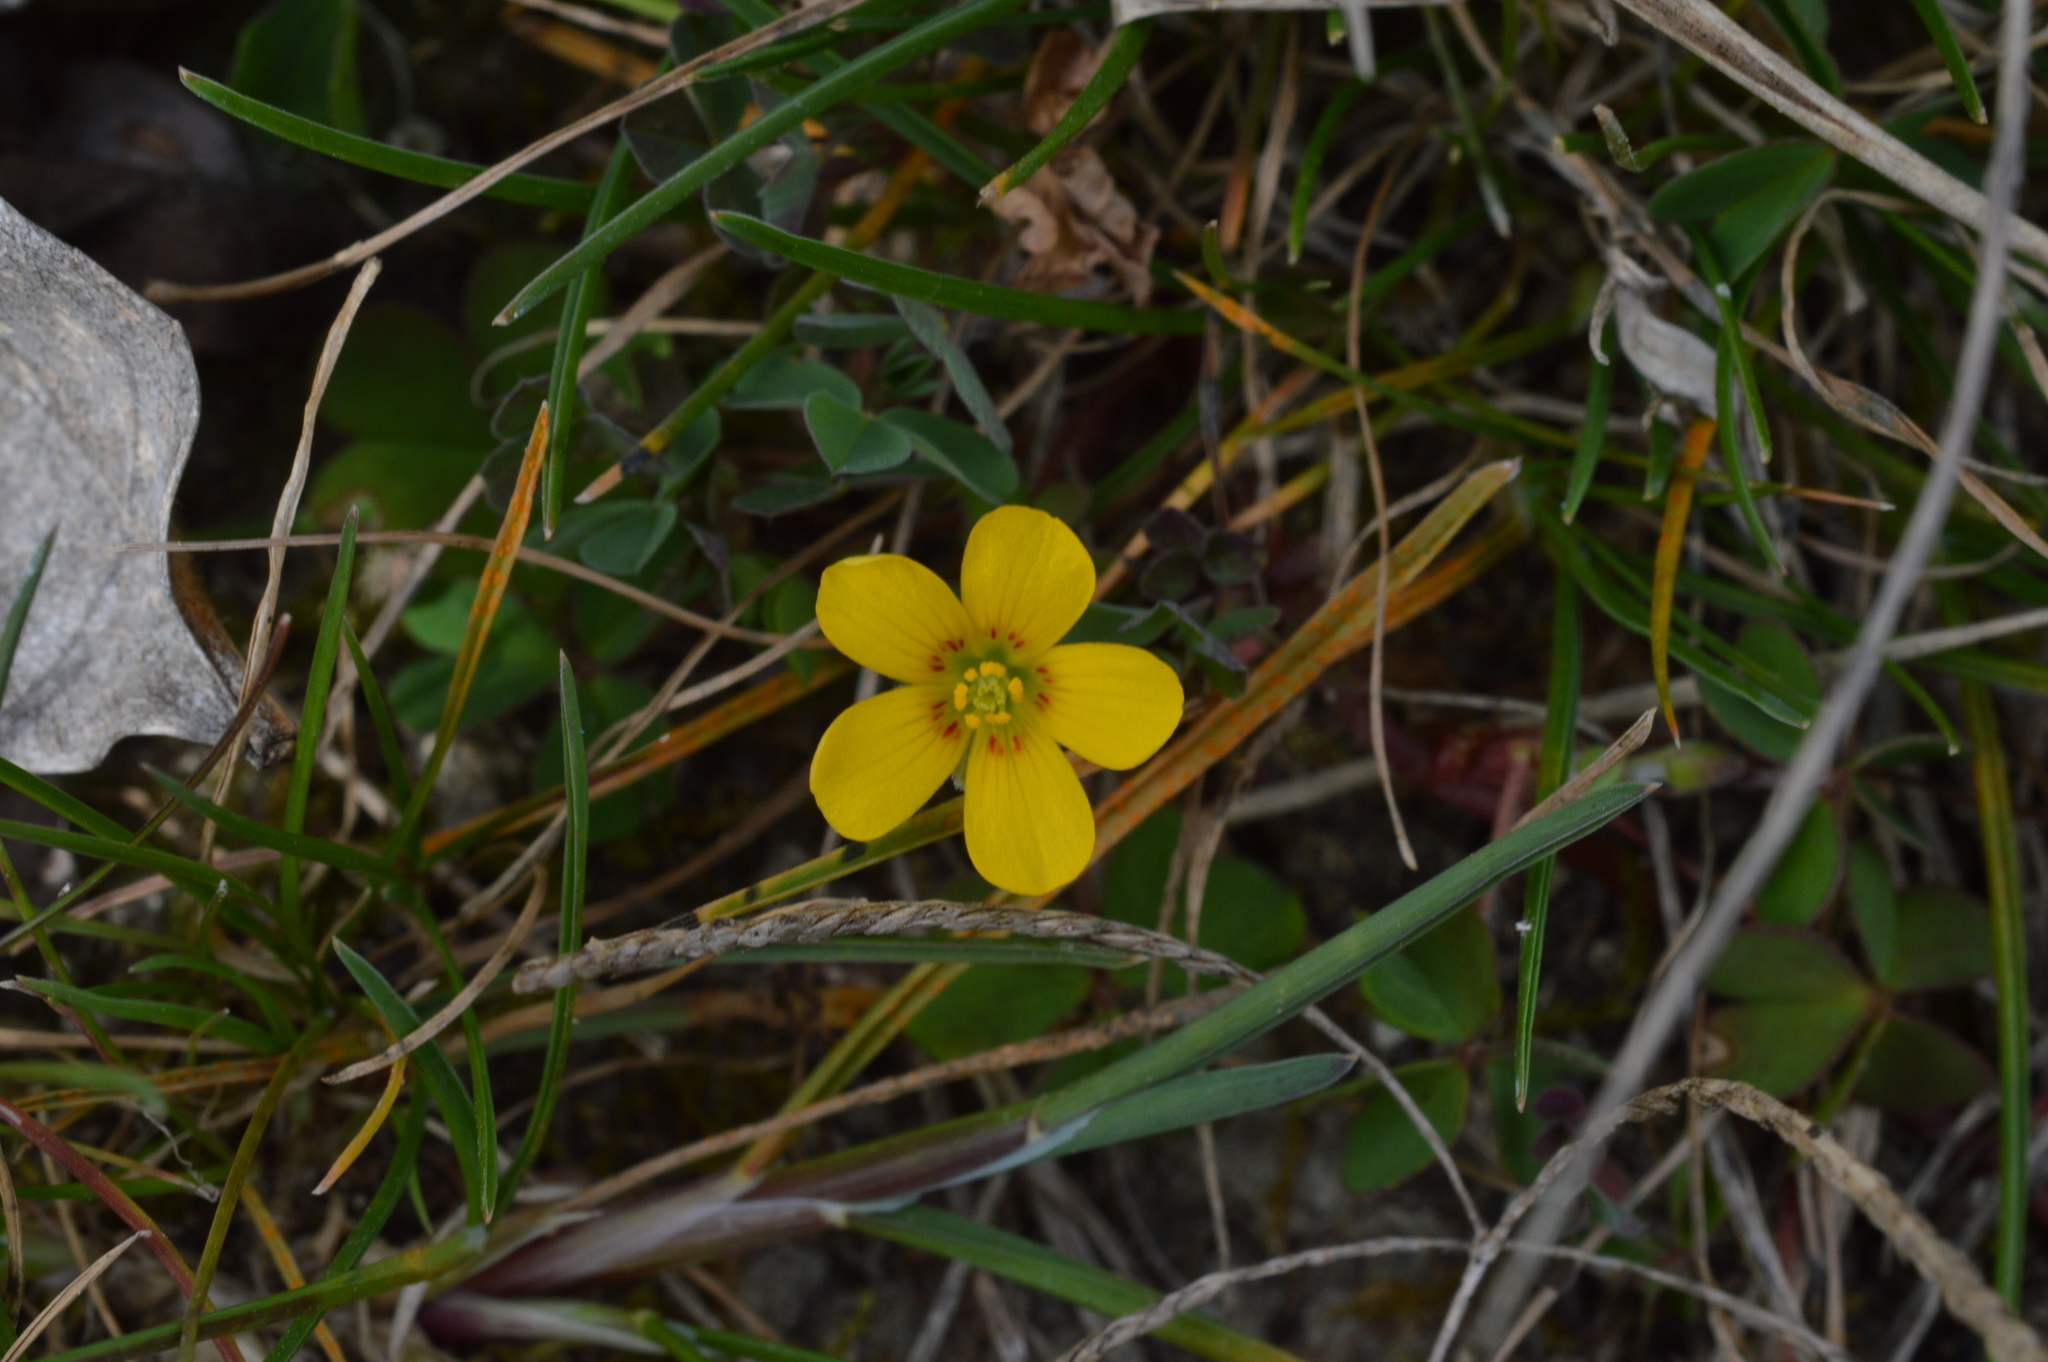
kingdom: Plantae
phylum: Tracheophyta
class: Magnoliopsida
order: Oxalidales
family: Oxalidaceae
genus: Oxalis
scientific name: Oxalis corniculata
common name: Procumbent yellow-sorrel
